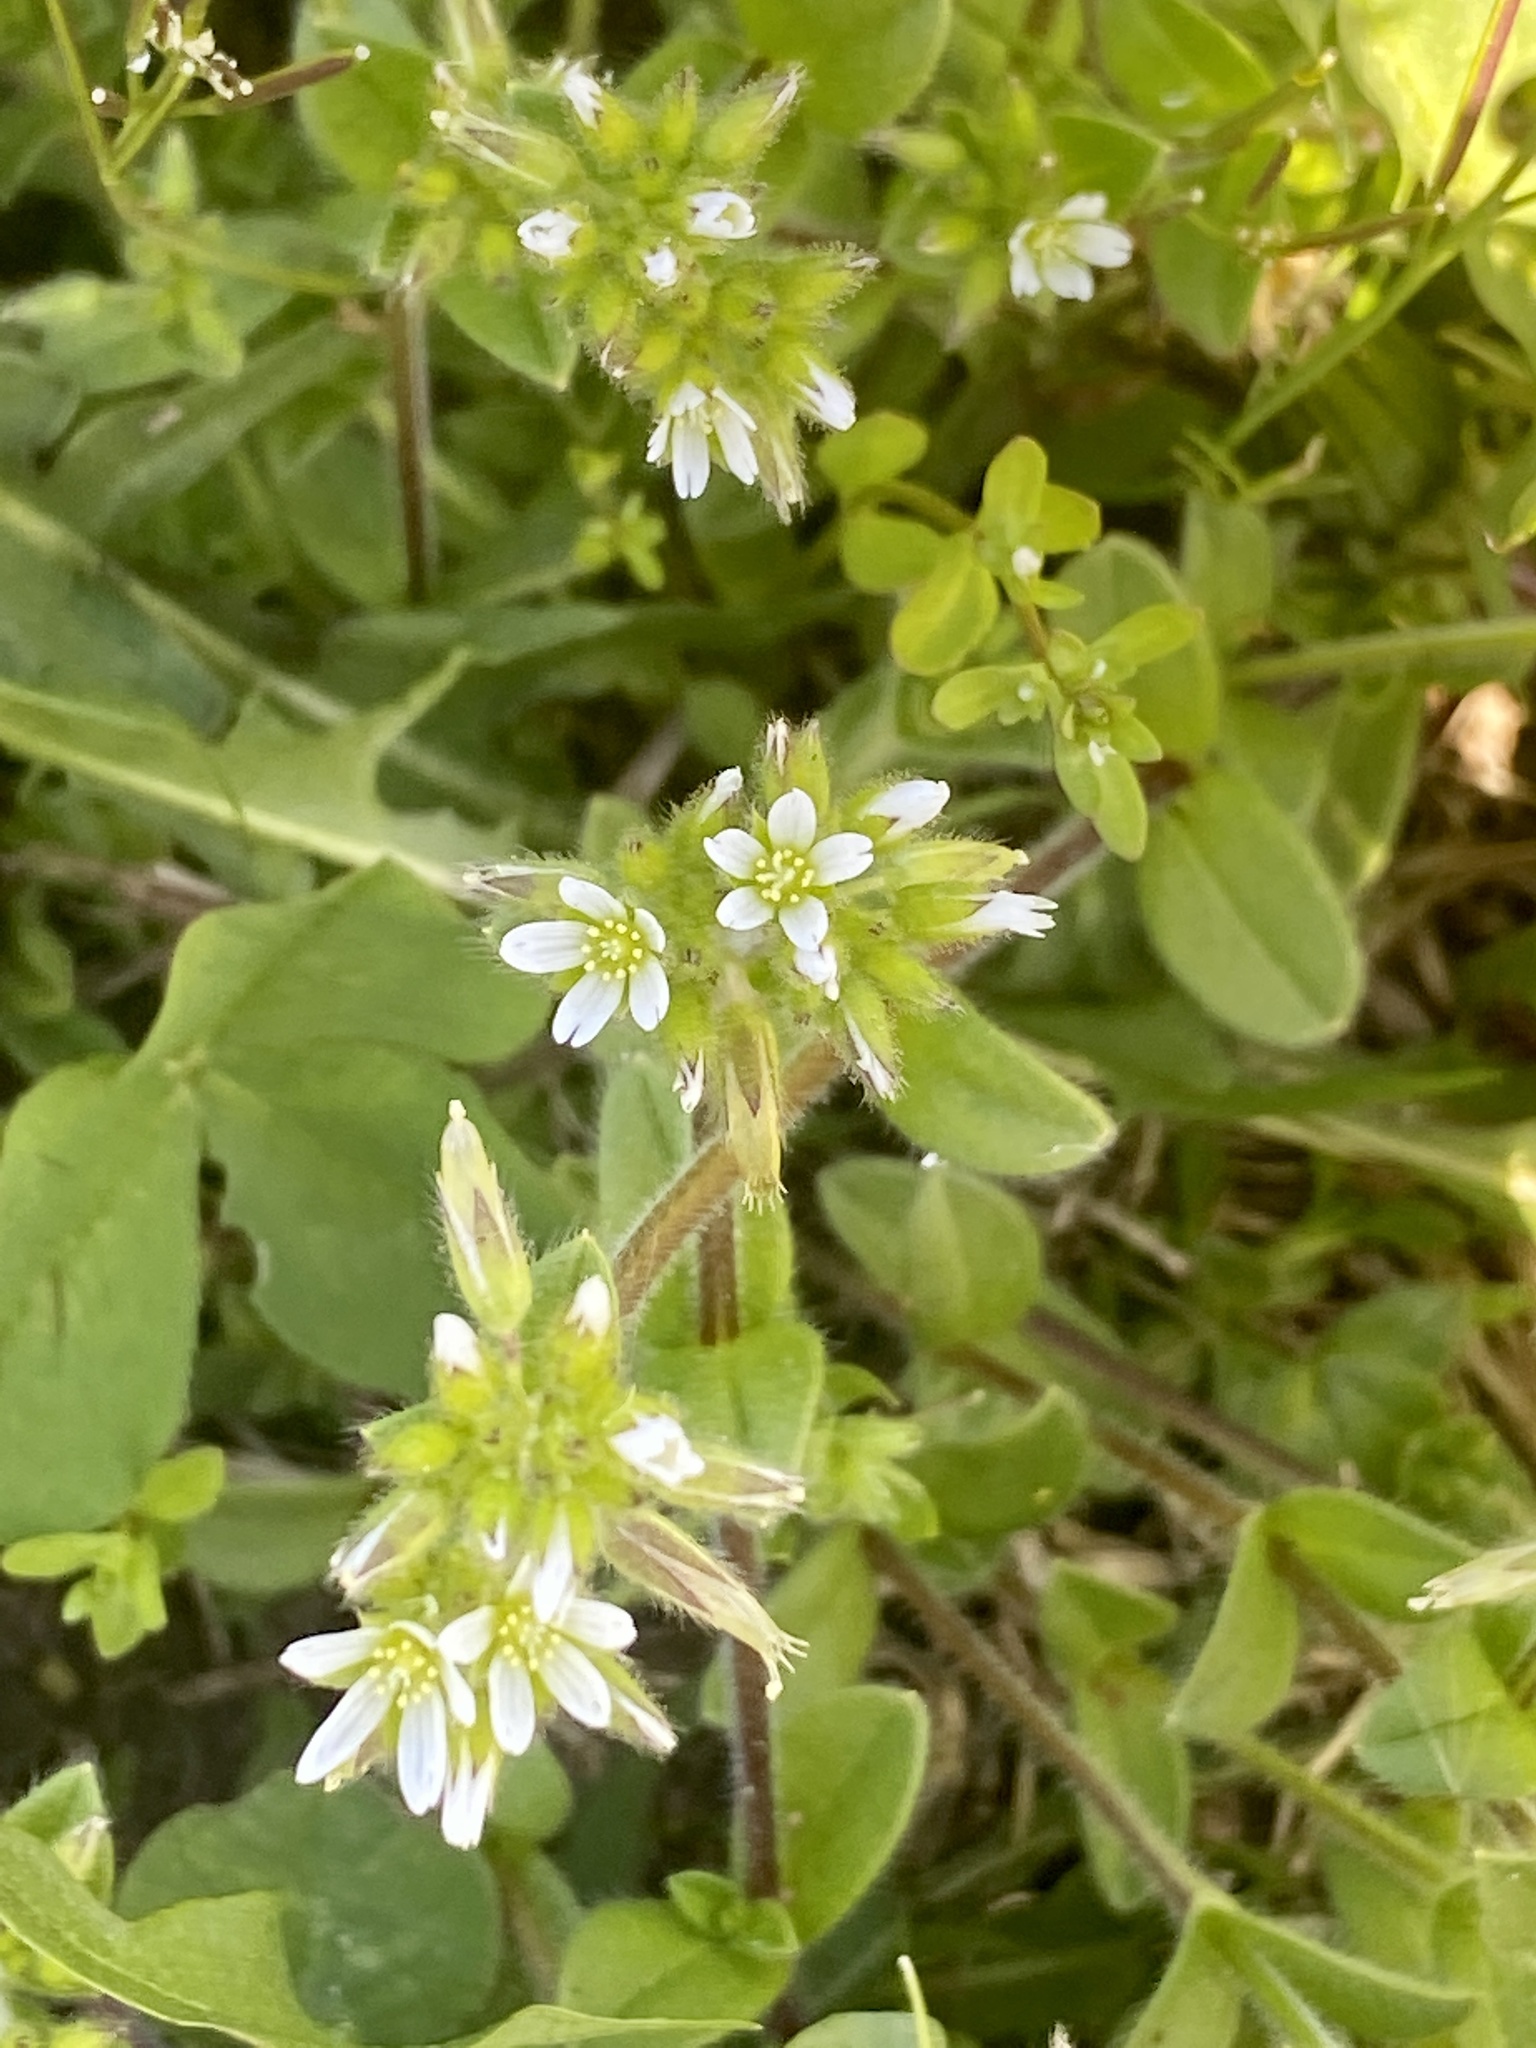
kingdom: Plantae
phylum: Tracheophyta
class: Magnoliopsida
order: Caryophyllales
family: Caryophyllaceae
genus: Cerastium
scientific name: Cerastium glomeratum
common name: Sticky chickweed
